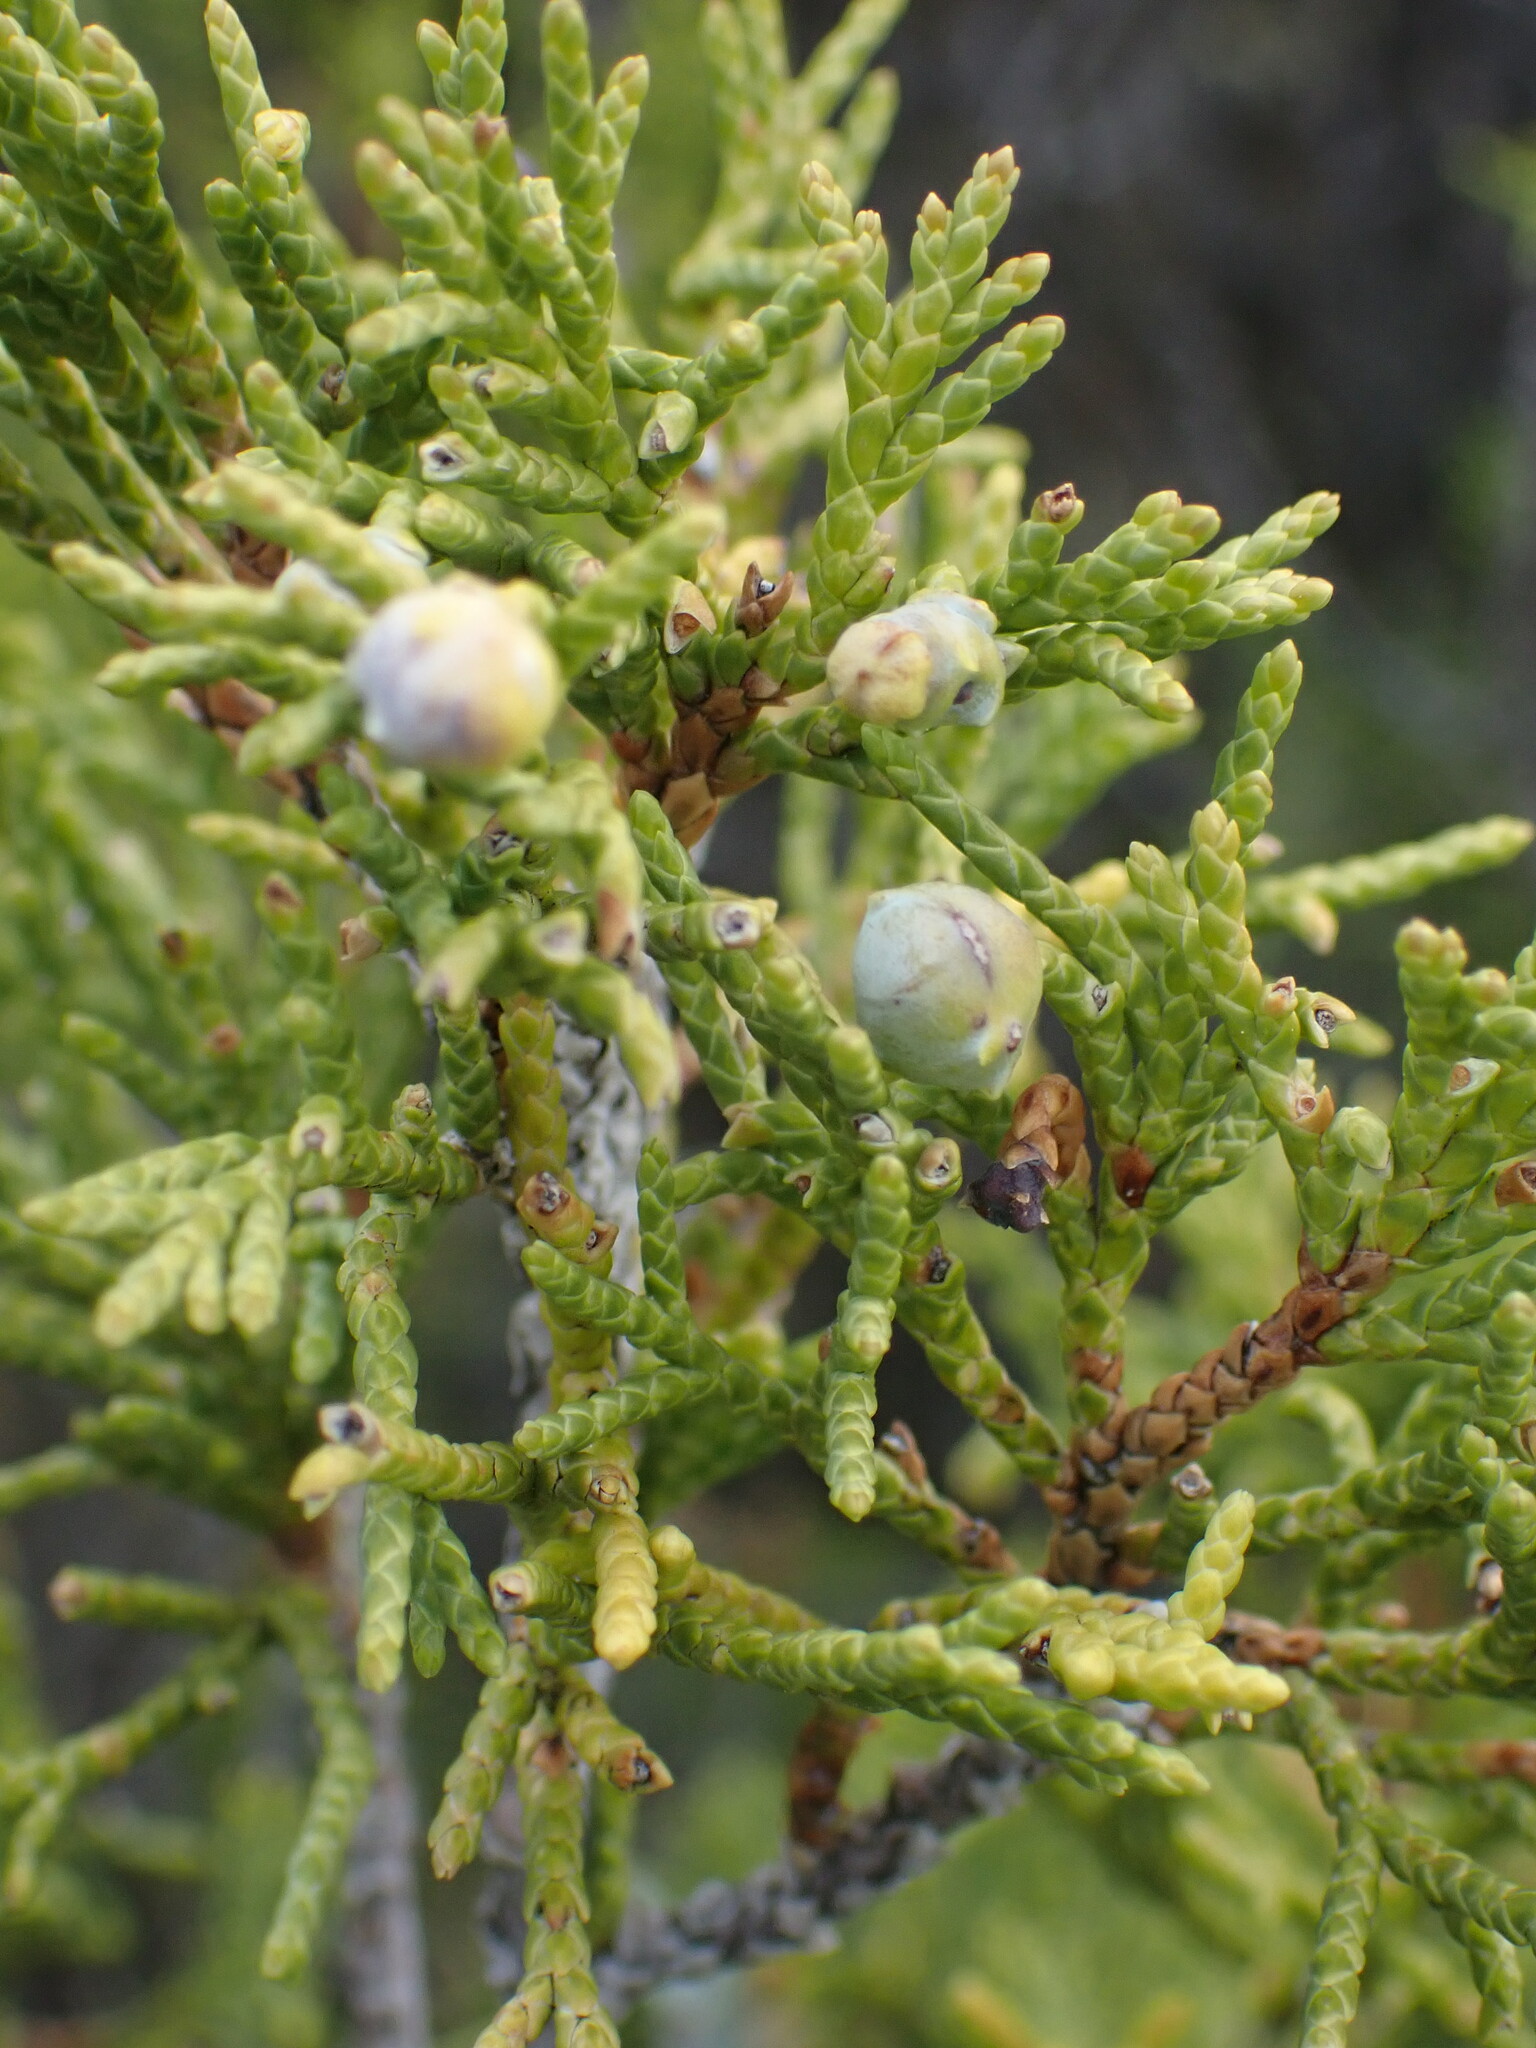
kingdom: Plantae
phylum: Tracheophyta
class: Pinopsida
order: Pinales
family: Cupressaceae
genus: Juniperus
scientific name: Juniperus scopulorum
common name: Rocky mountain juniper
